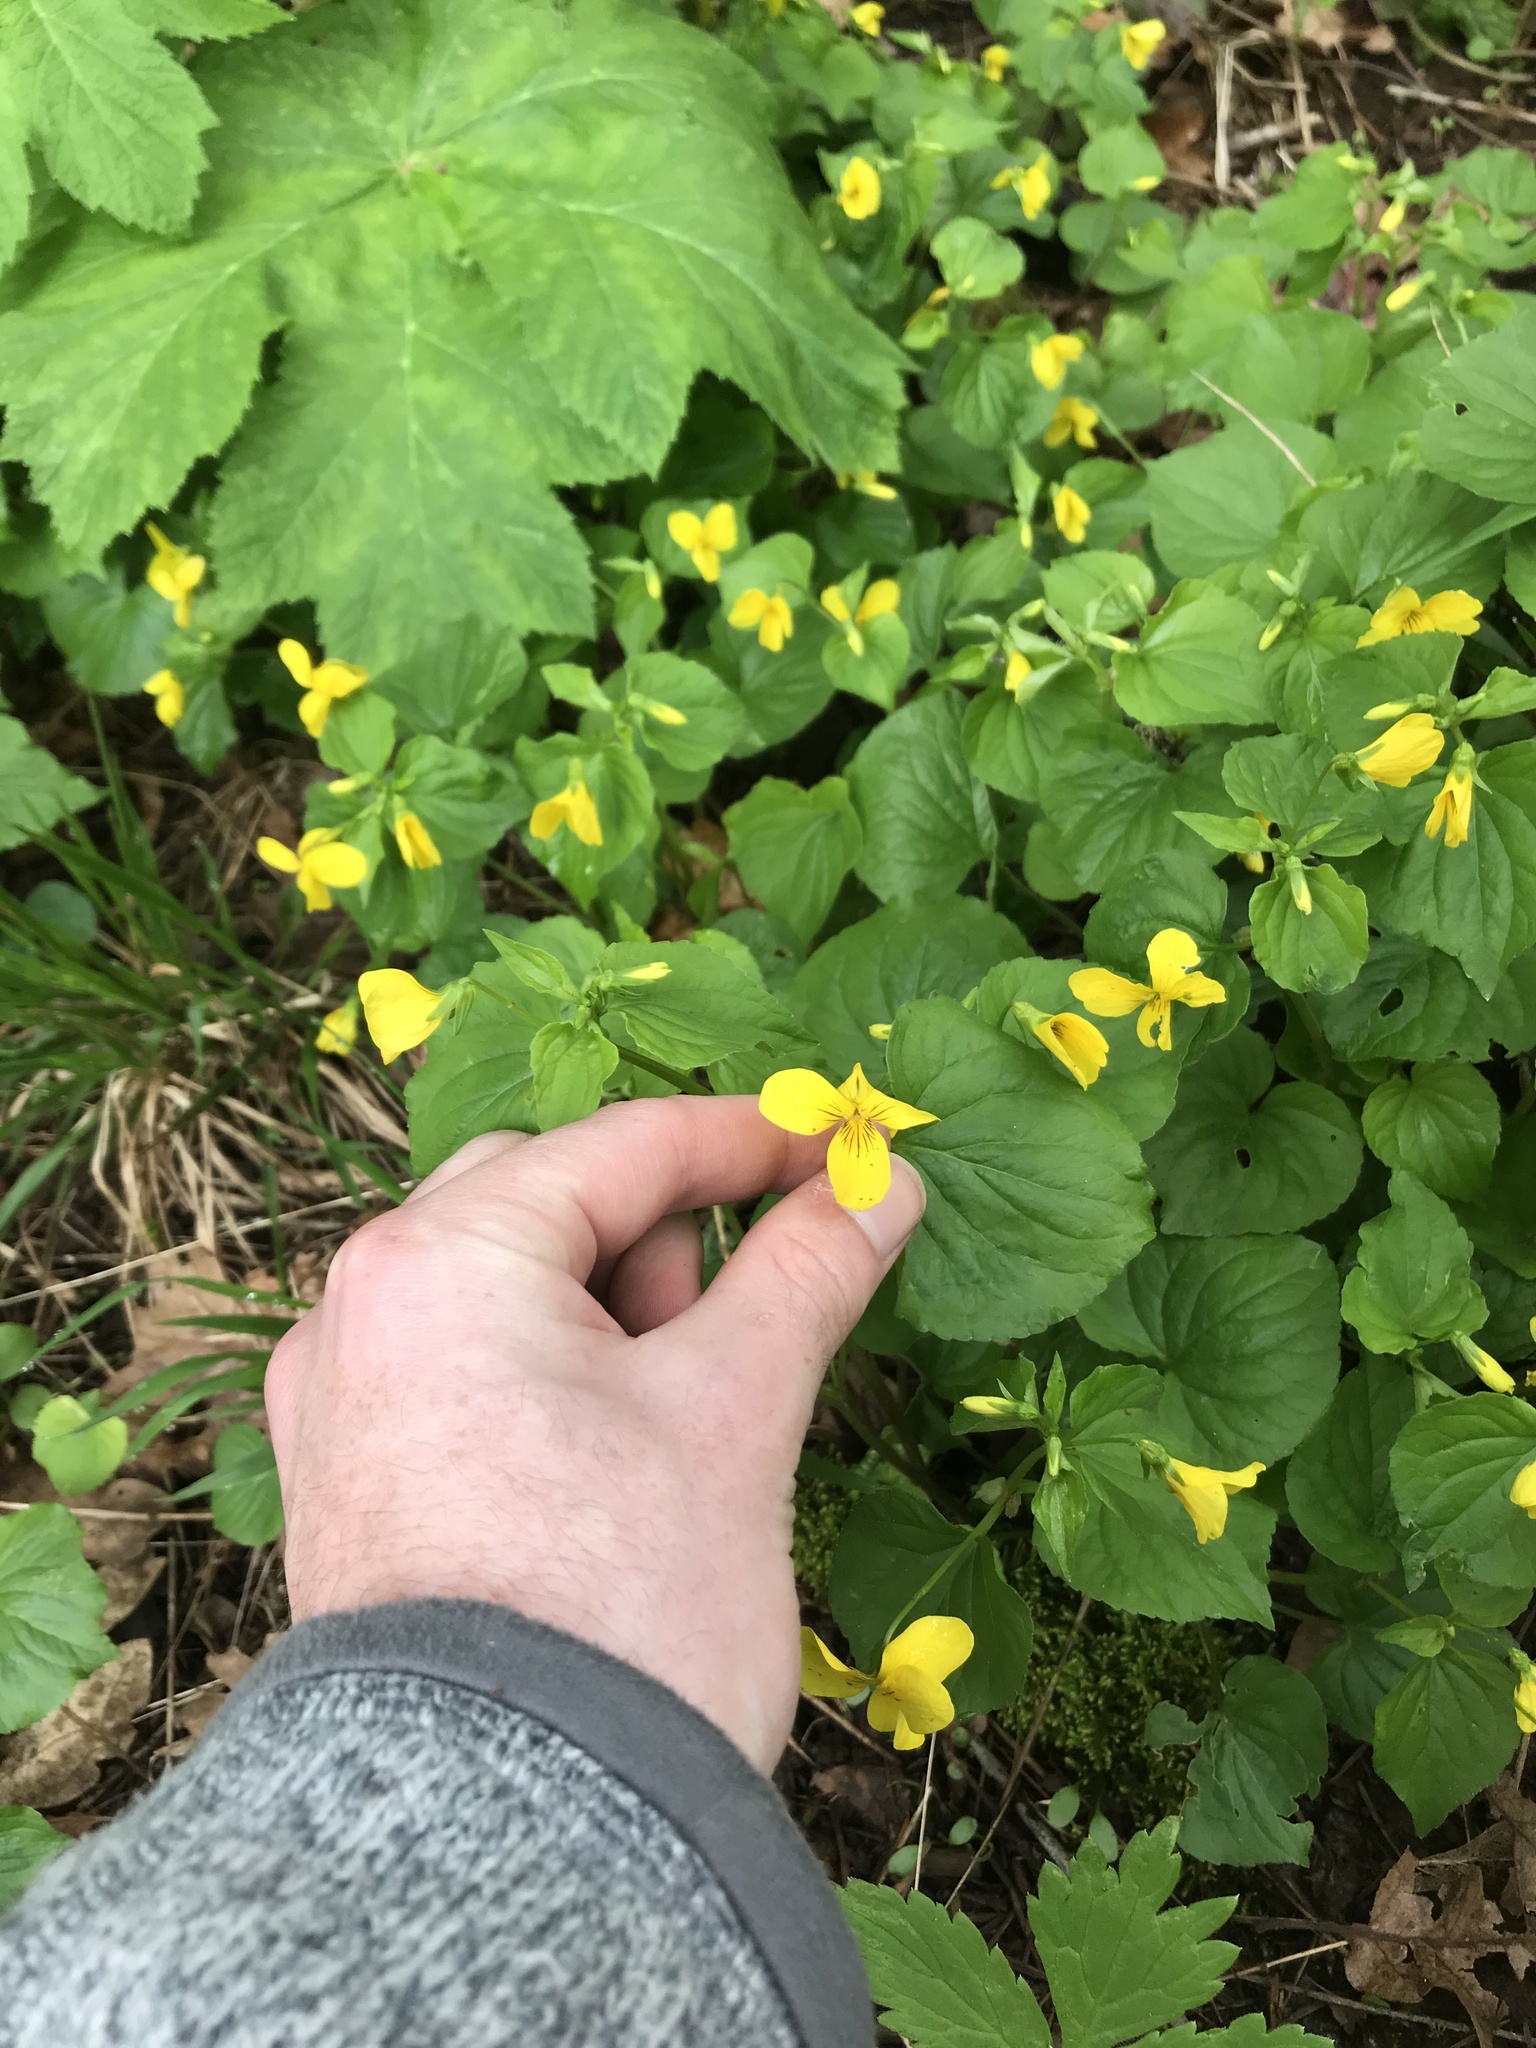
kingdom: Plantae
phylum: Tracheophyta
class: Magnoliopsida
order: Malpighiales
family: Violaceae
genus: Viola
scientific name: Viola glabella
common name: Stream violet
